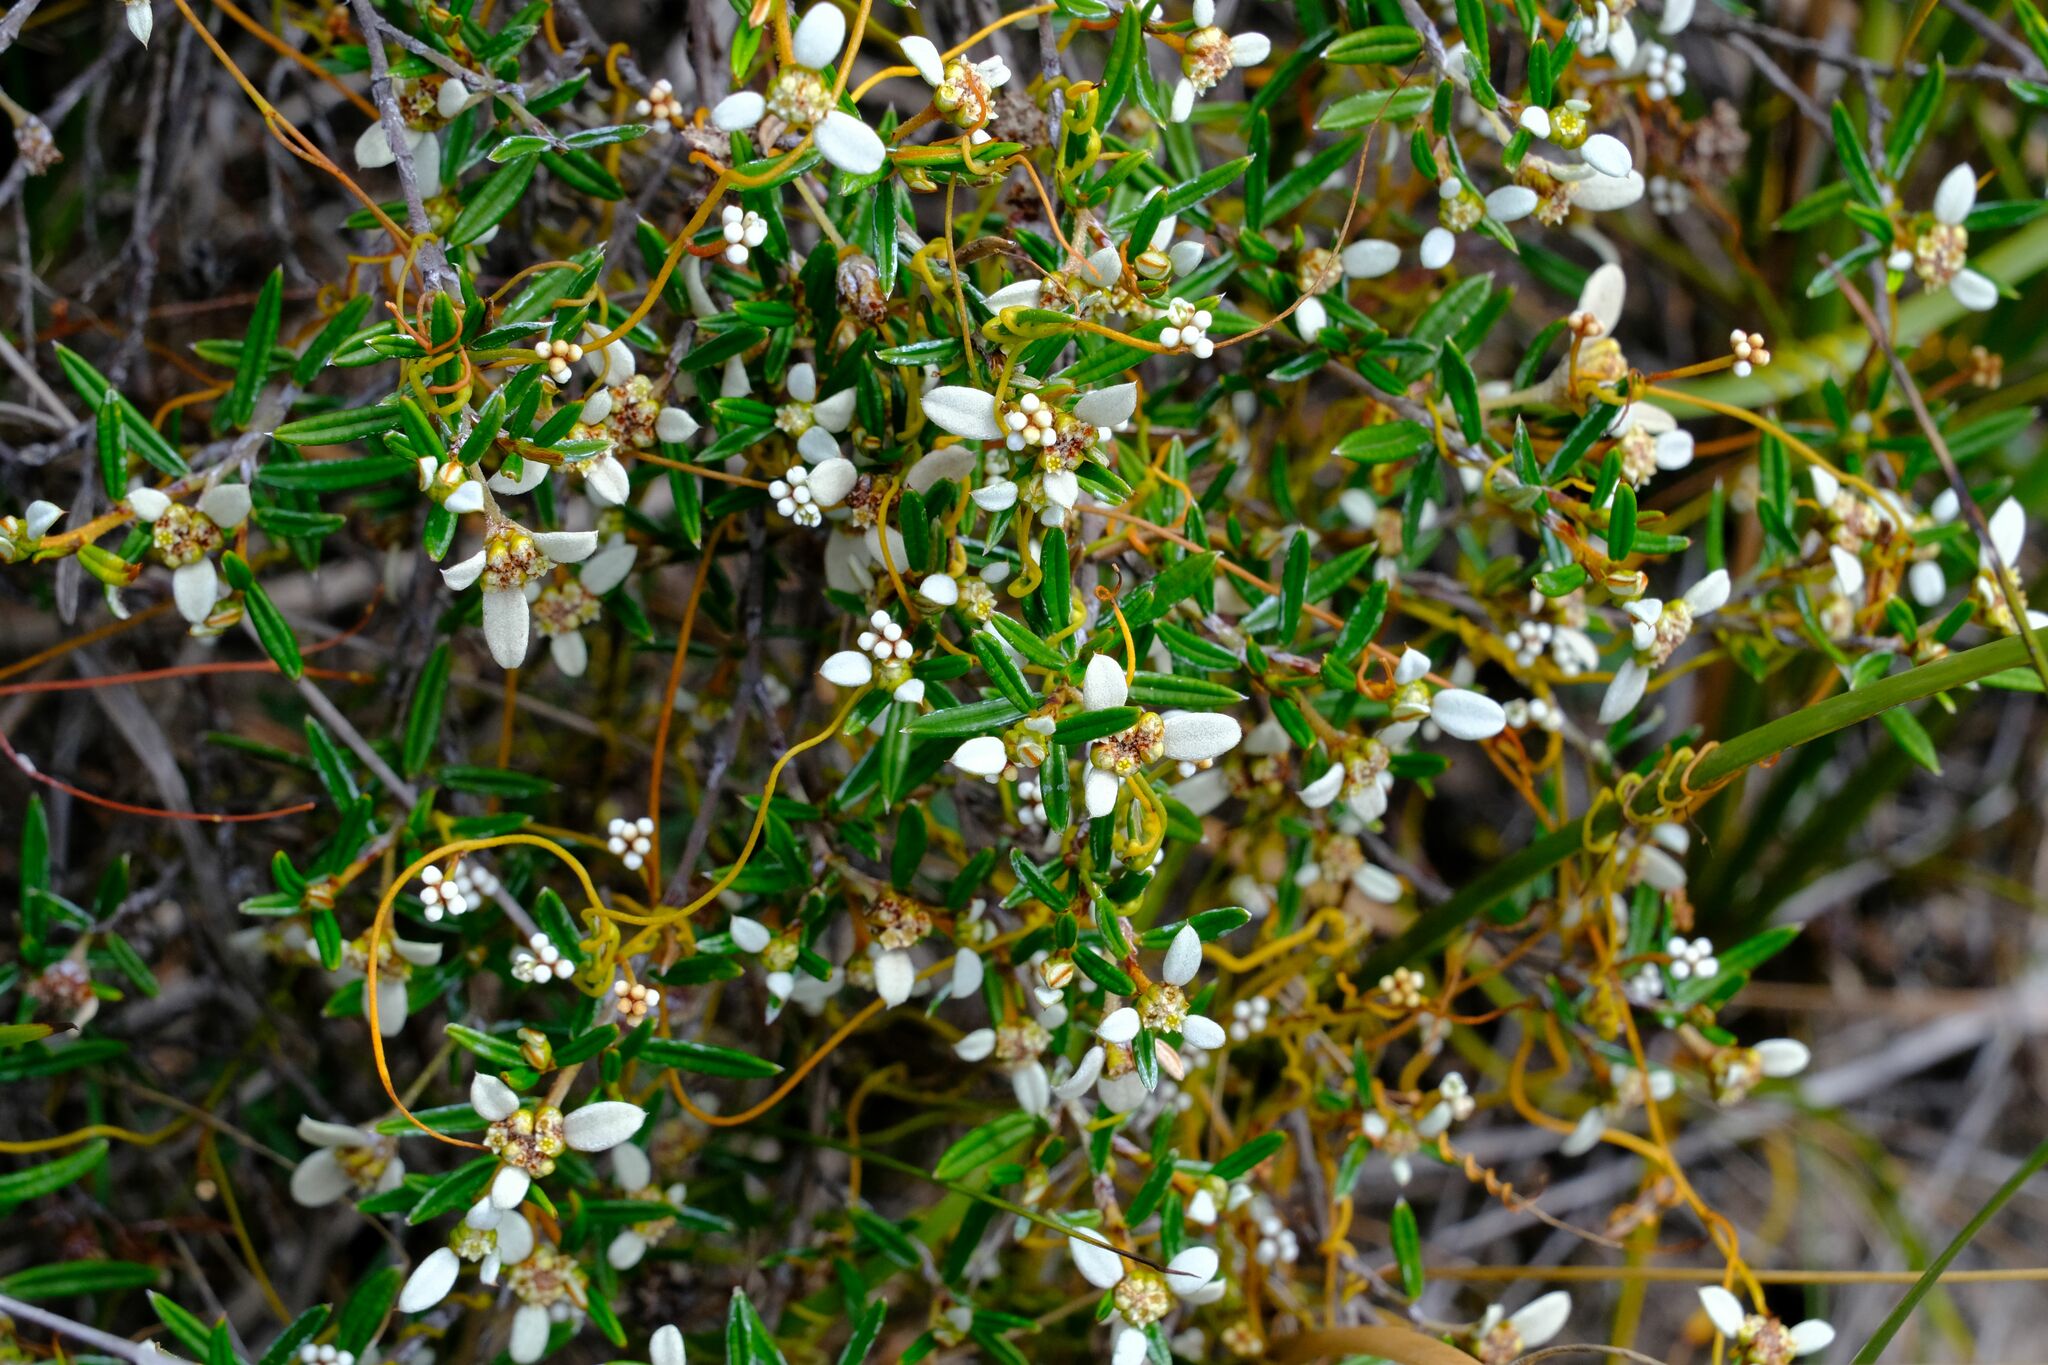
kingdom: Plantae
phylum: Tracheophyta
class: Magnoliopsida
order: Rosales
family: Rhamnaceae
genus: Spyridium
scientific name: Spyridium vexilliferum
